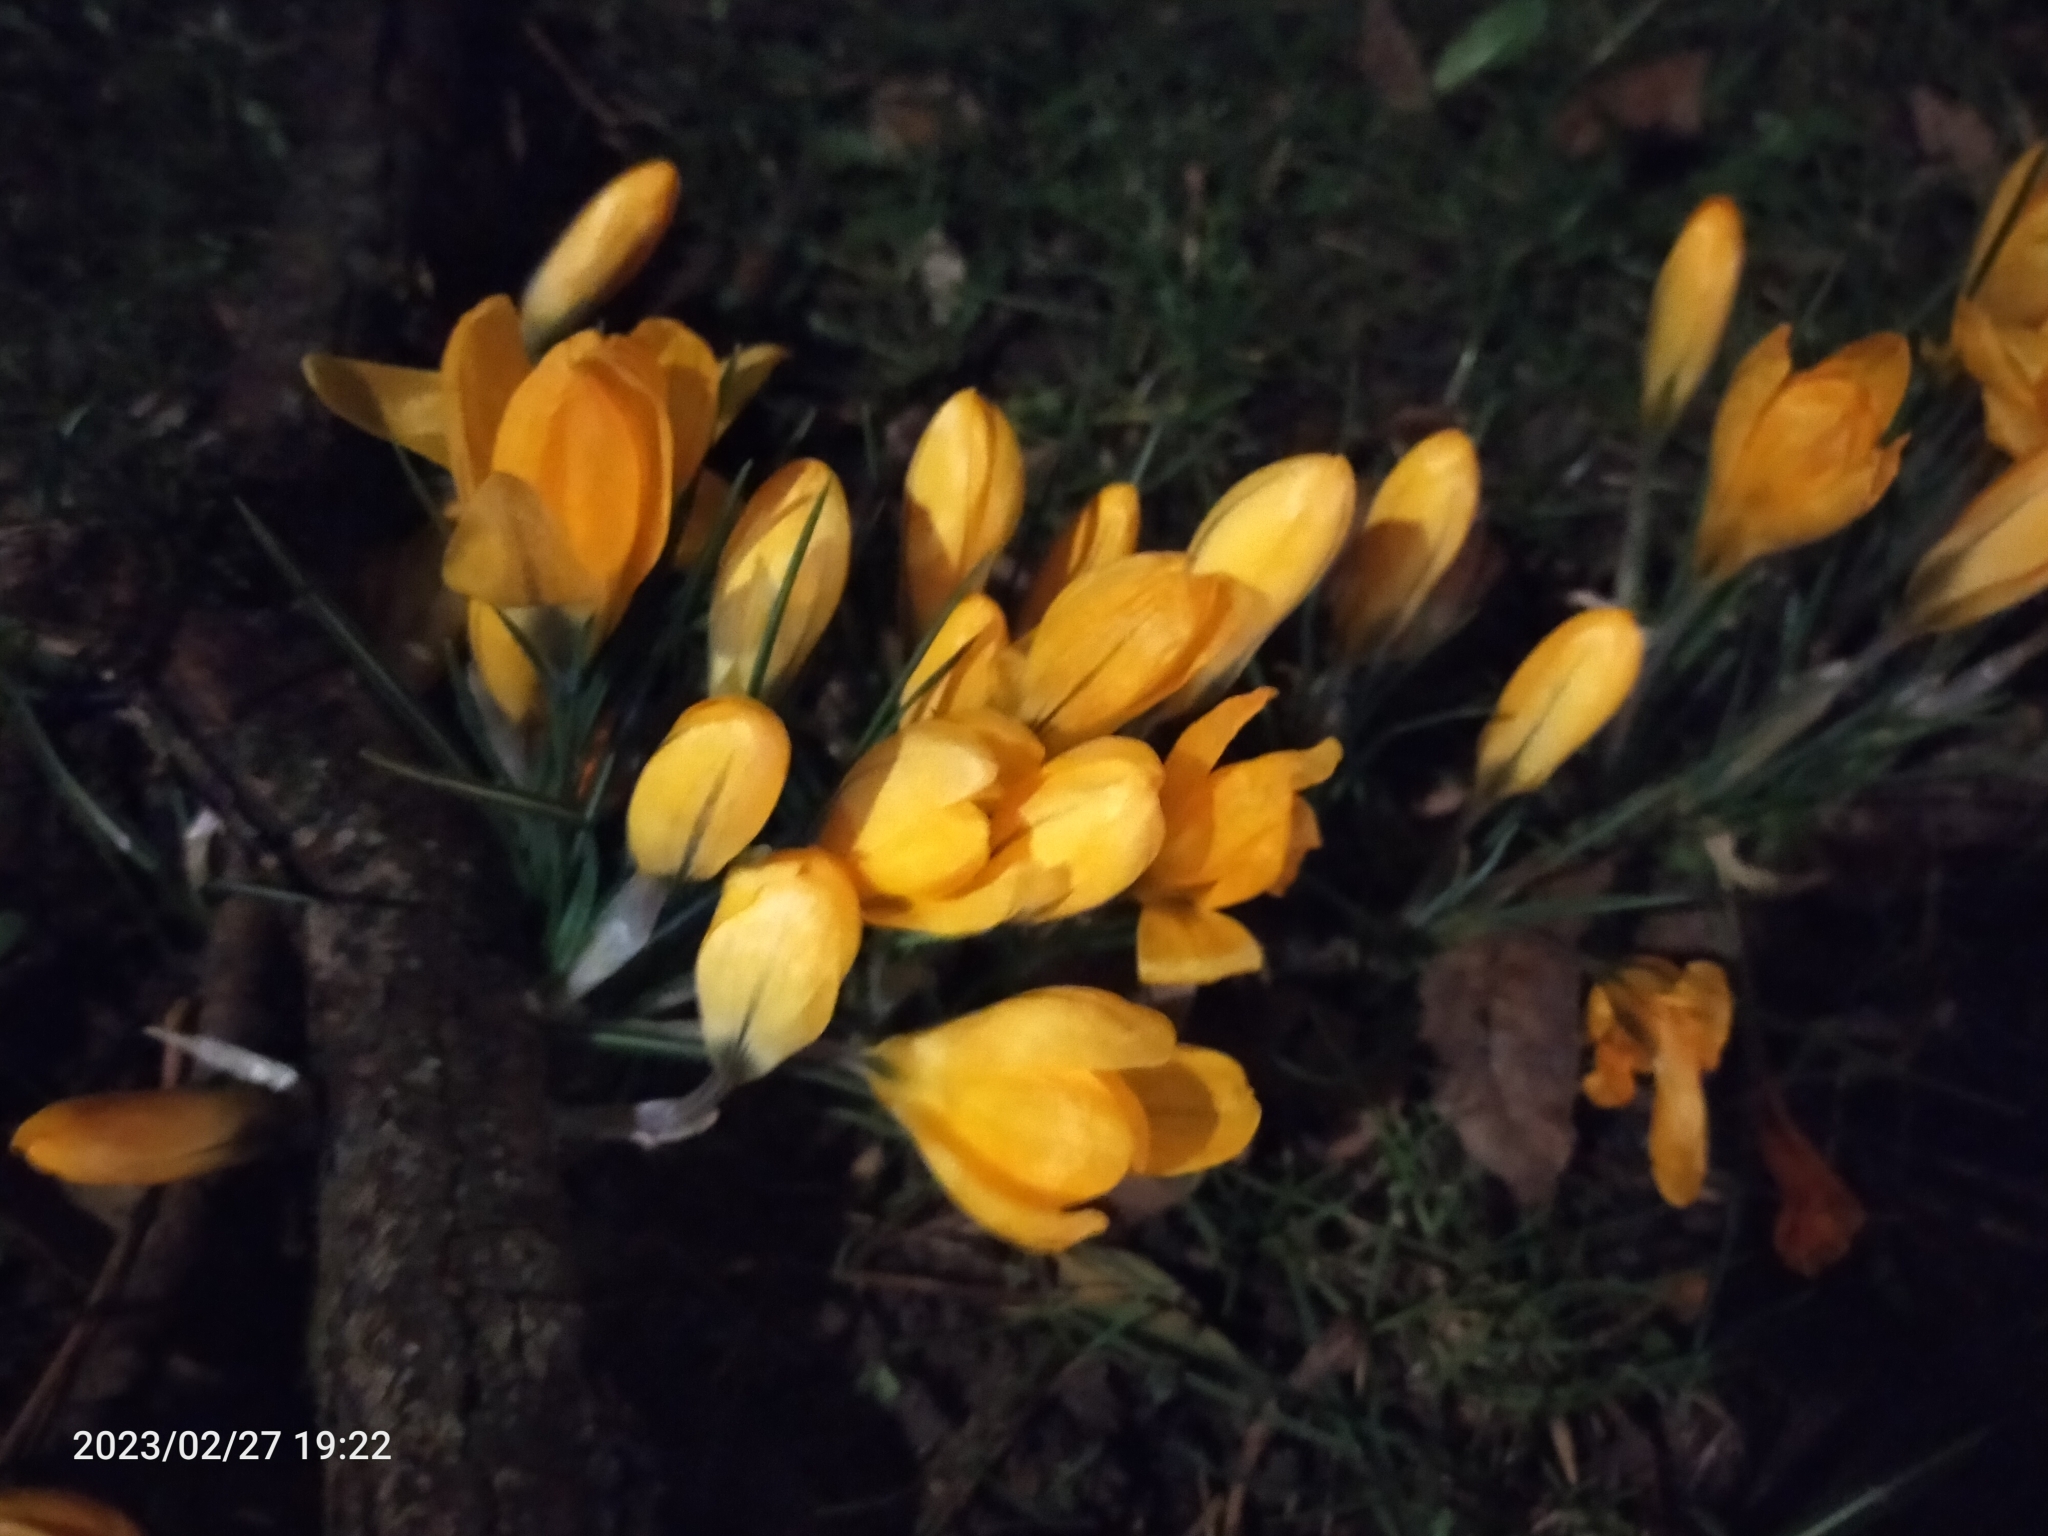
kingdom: Plantae
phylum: Tracheophyta
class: Liliopsida
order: Asparagales
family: Iridaceae
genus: Crocus
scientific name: Crocus luteus
